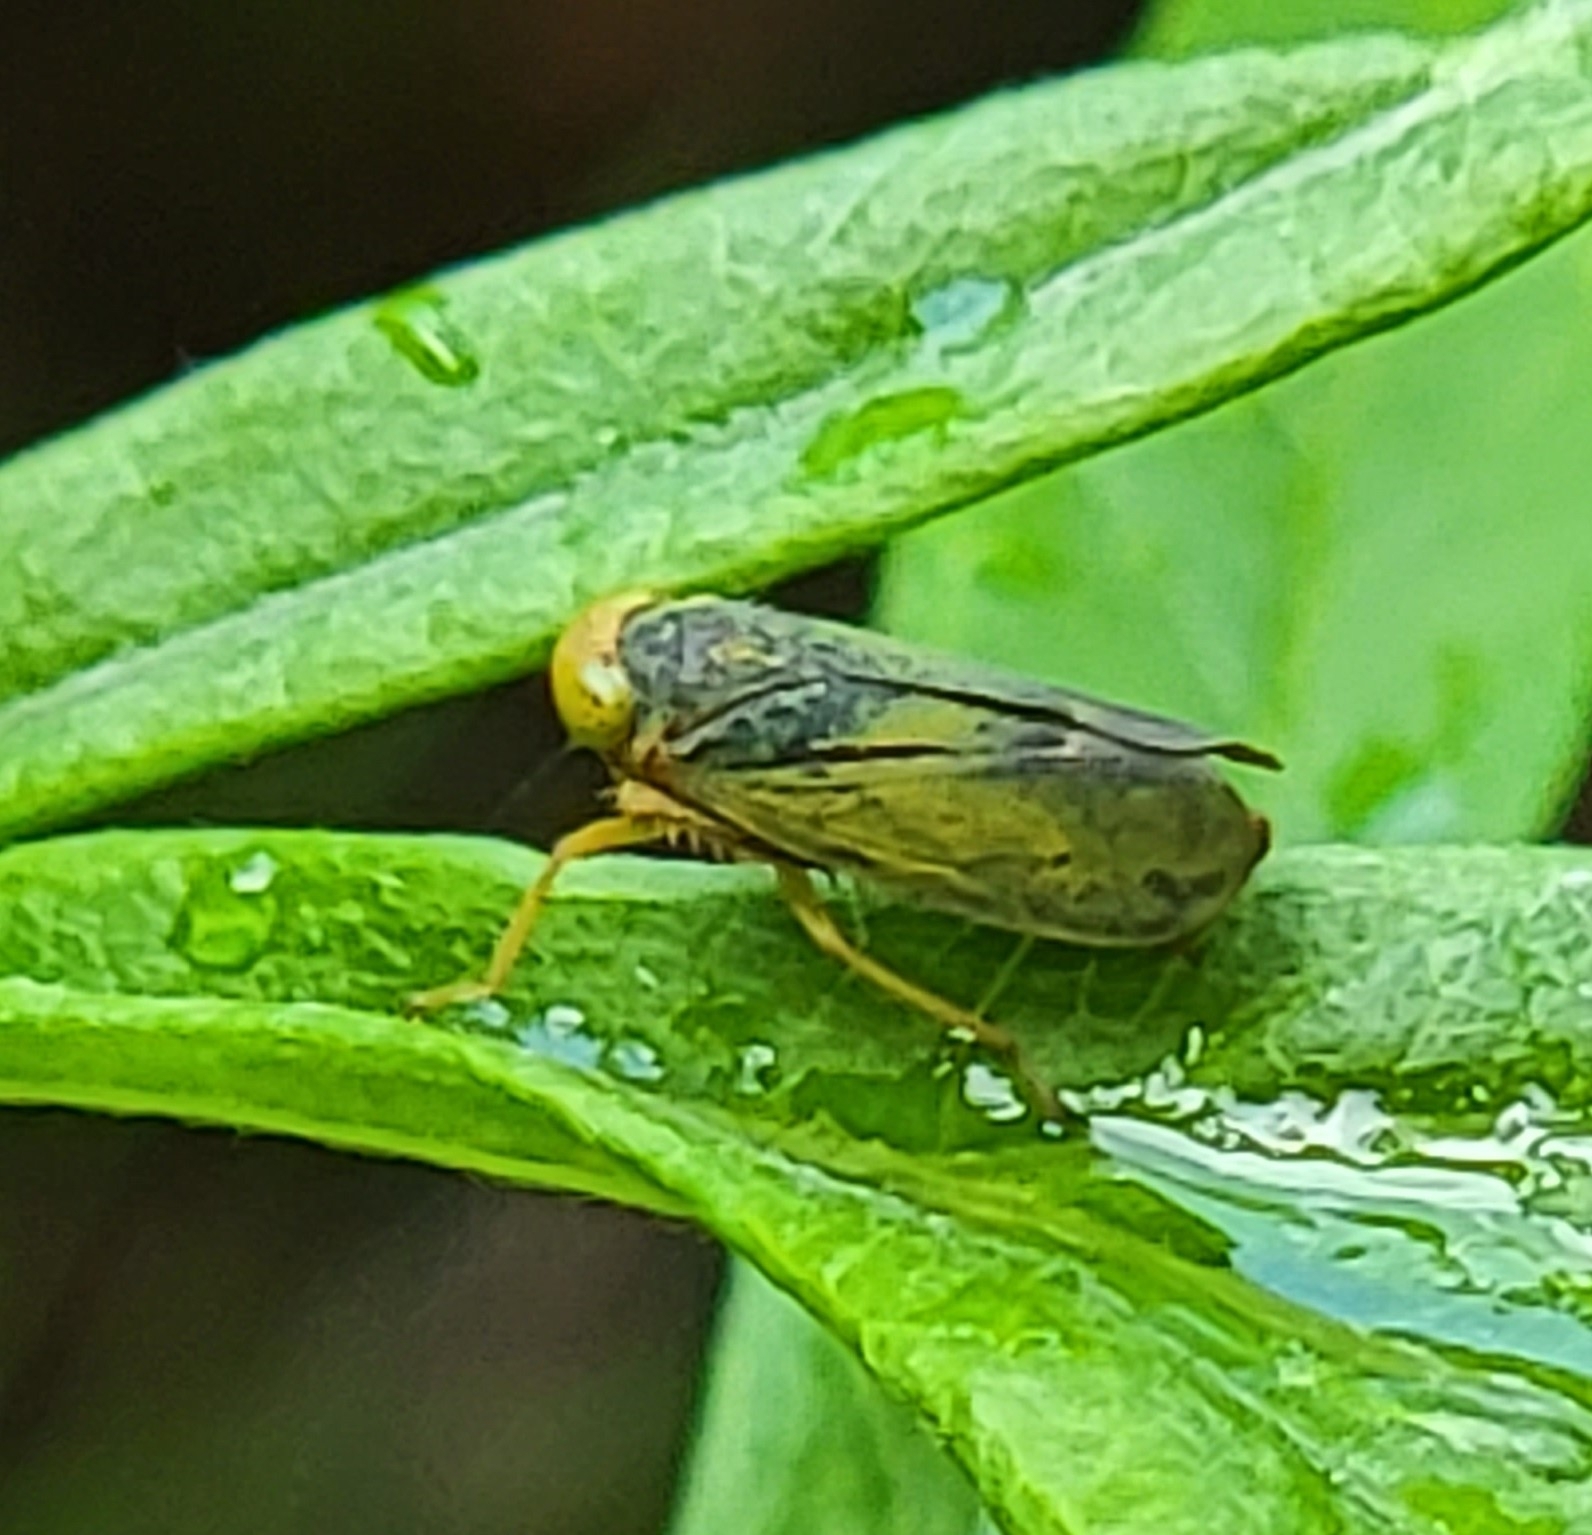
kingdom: Animalia
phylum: Arthropoda
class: Insecta
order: Hemiptera
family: Cicadellidae
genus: Jikradia
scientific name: Jikradia olitoria
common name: Coppery leafhopper
